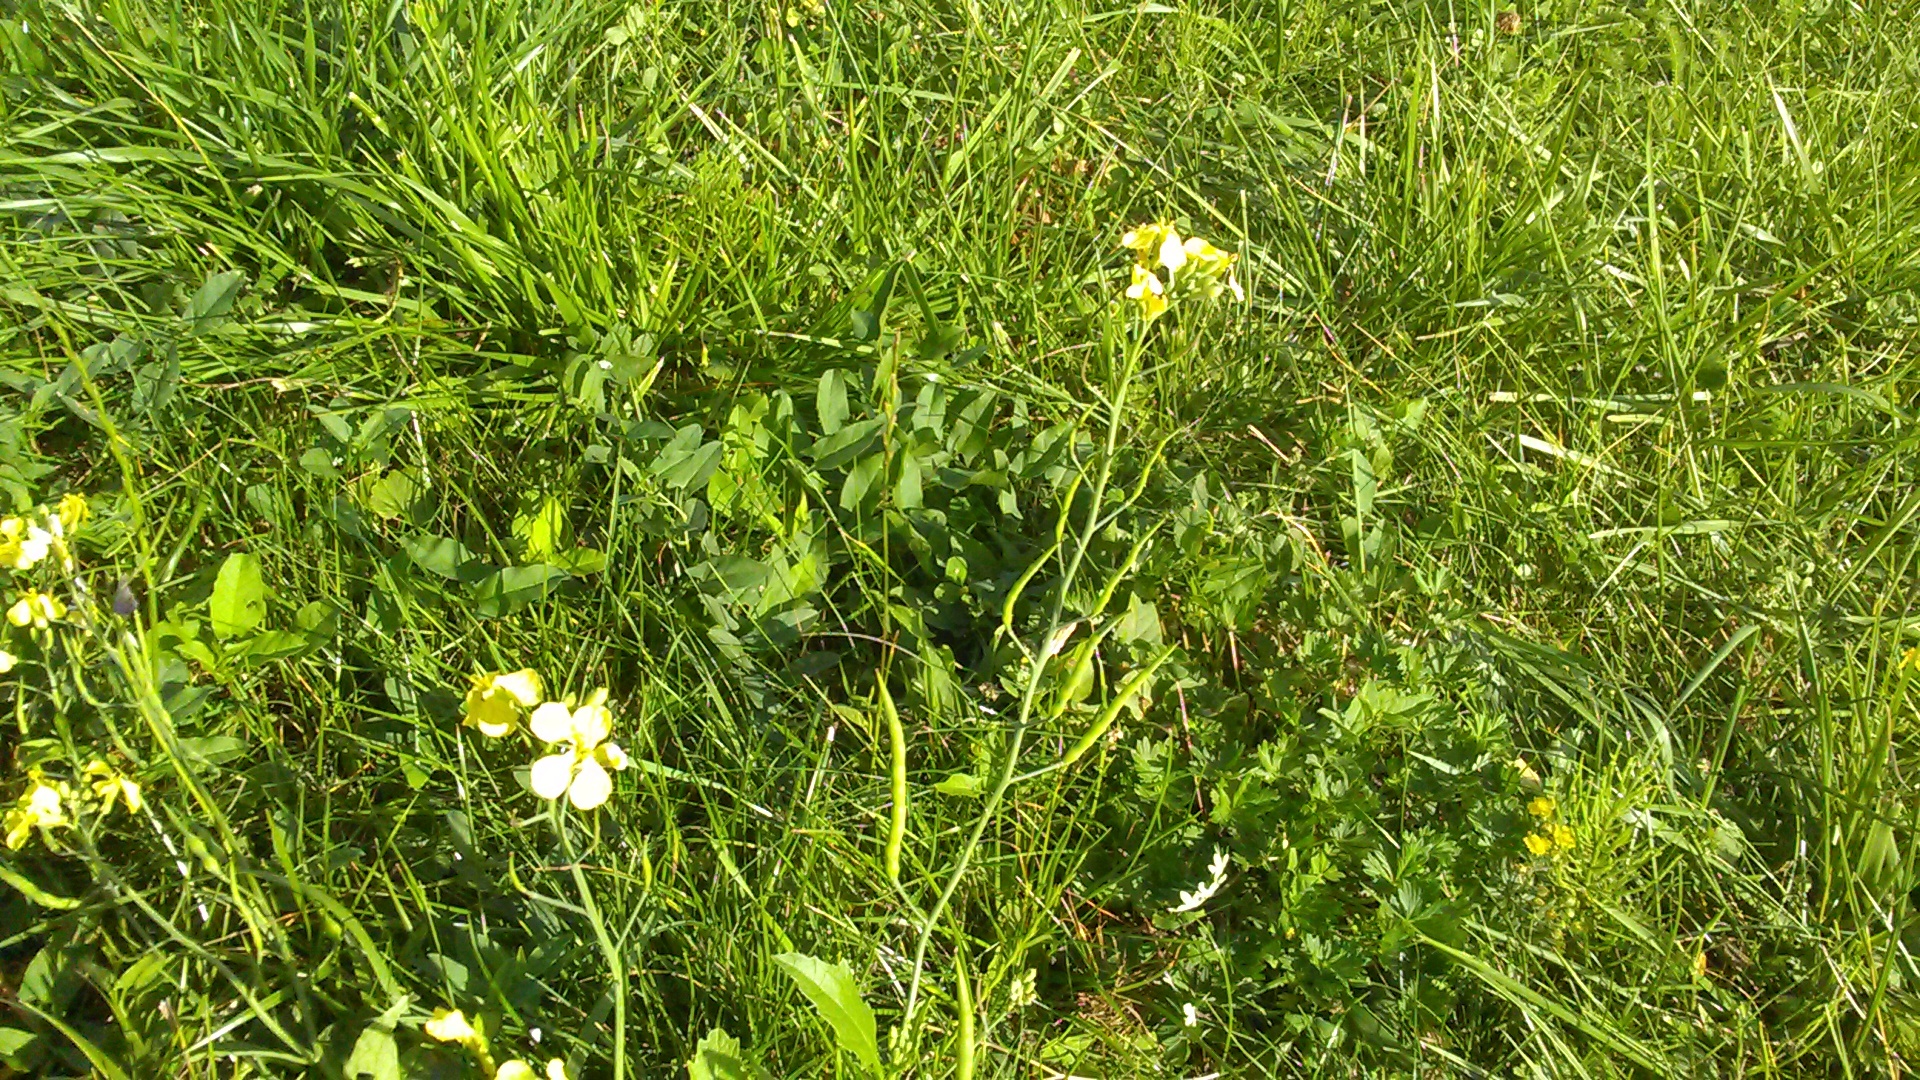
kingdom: Plantae
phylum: Tracheophyta
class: Magnoliopsida
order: Brassicales
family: Brassicaceae
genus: Raphanus
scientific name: Raphanus raphanistrum
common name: Wild radish
